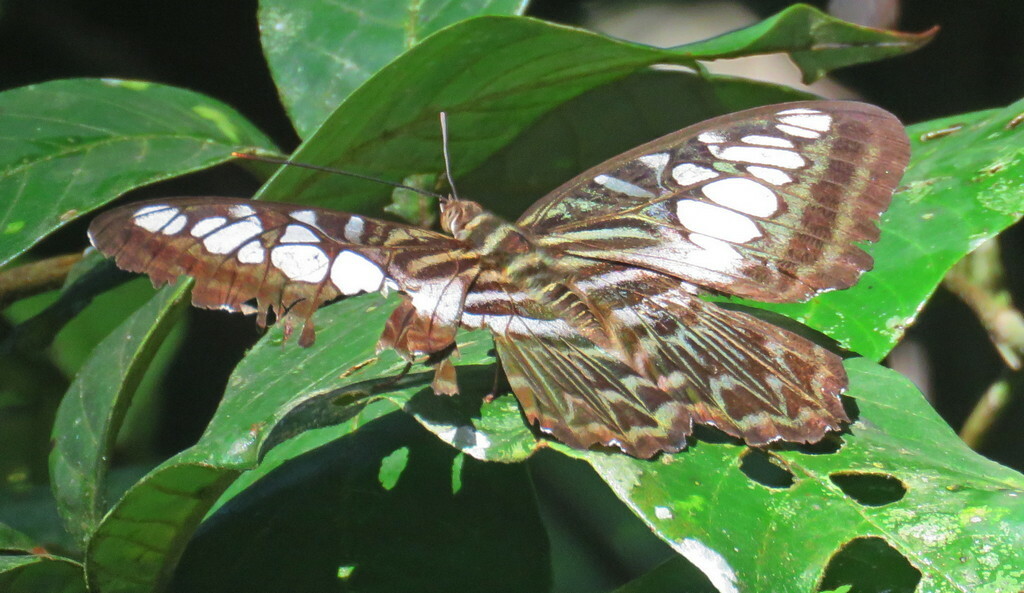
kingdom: Animalia
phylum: Arthropoda
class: Insecta
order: Lepidoptera
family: Nymphalidae
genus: Kallima
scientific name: Kallima sylvia
